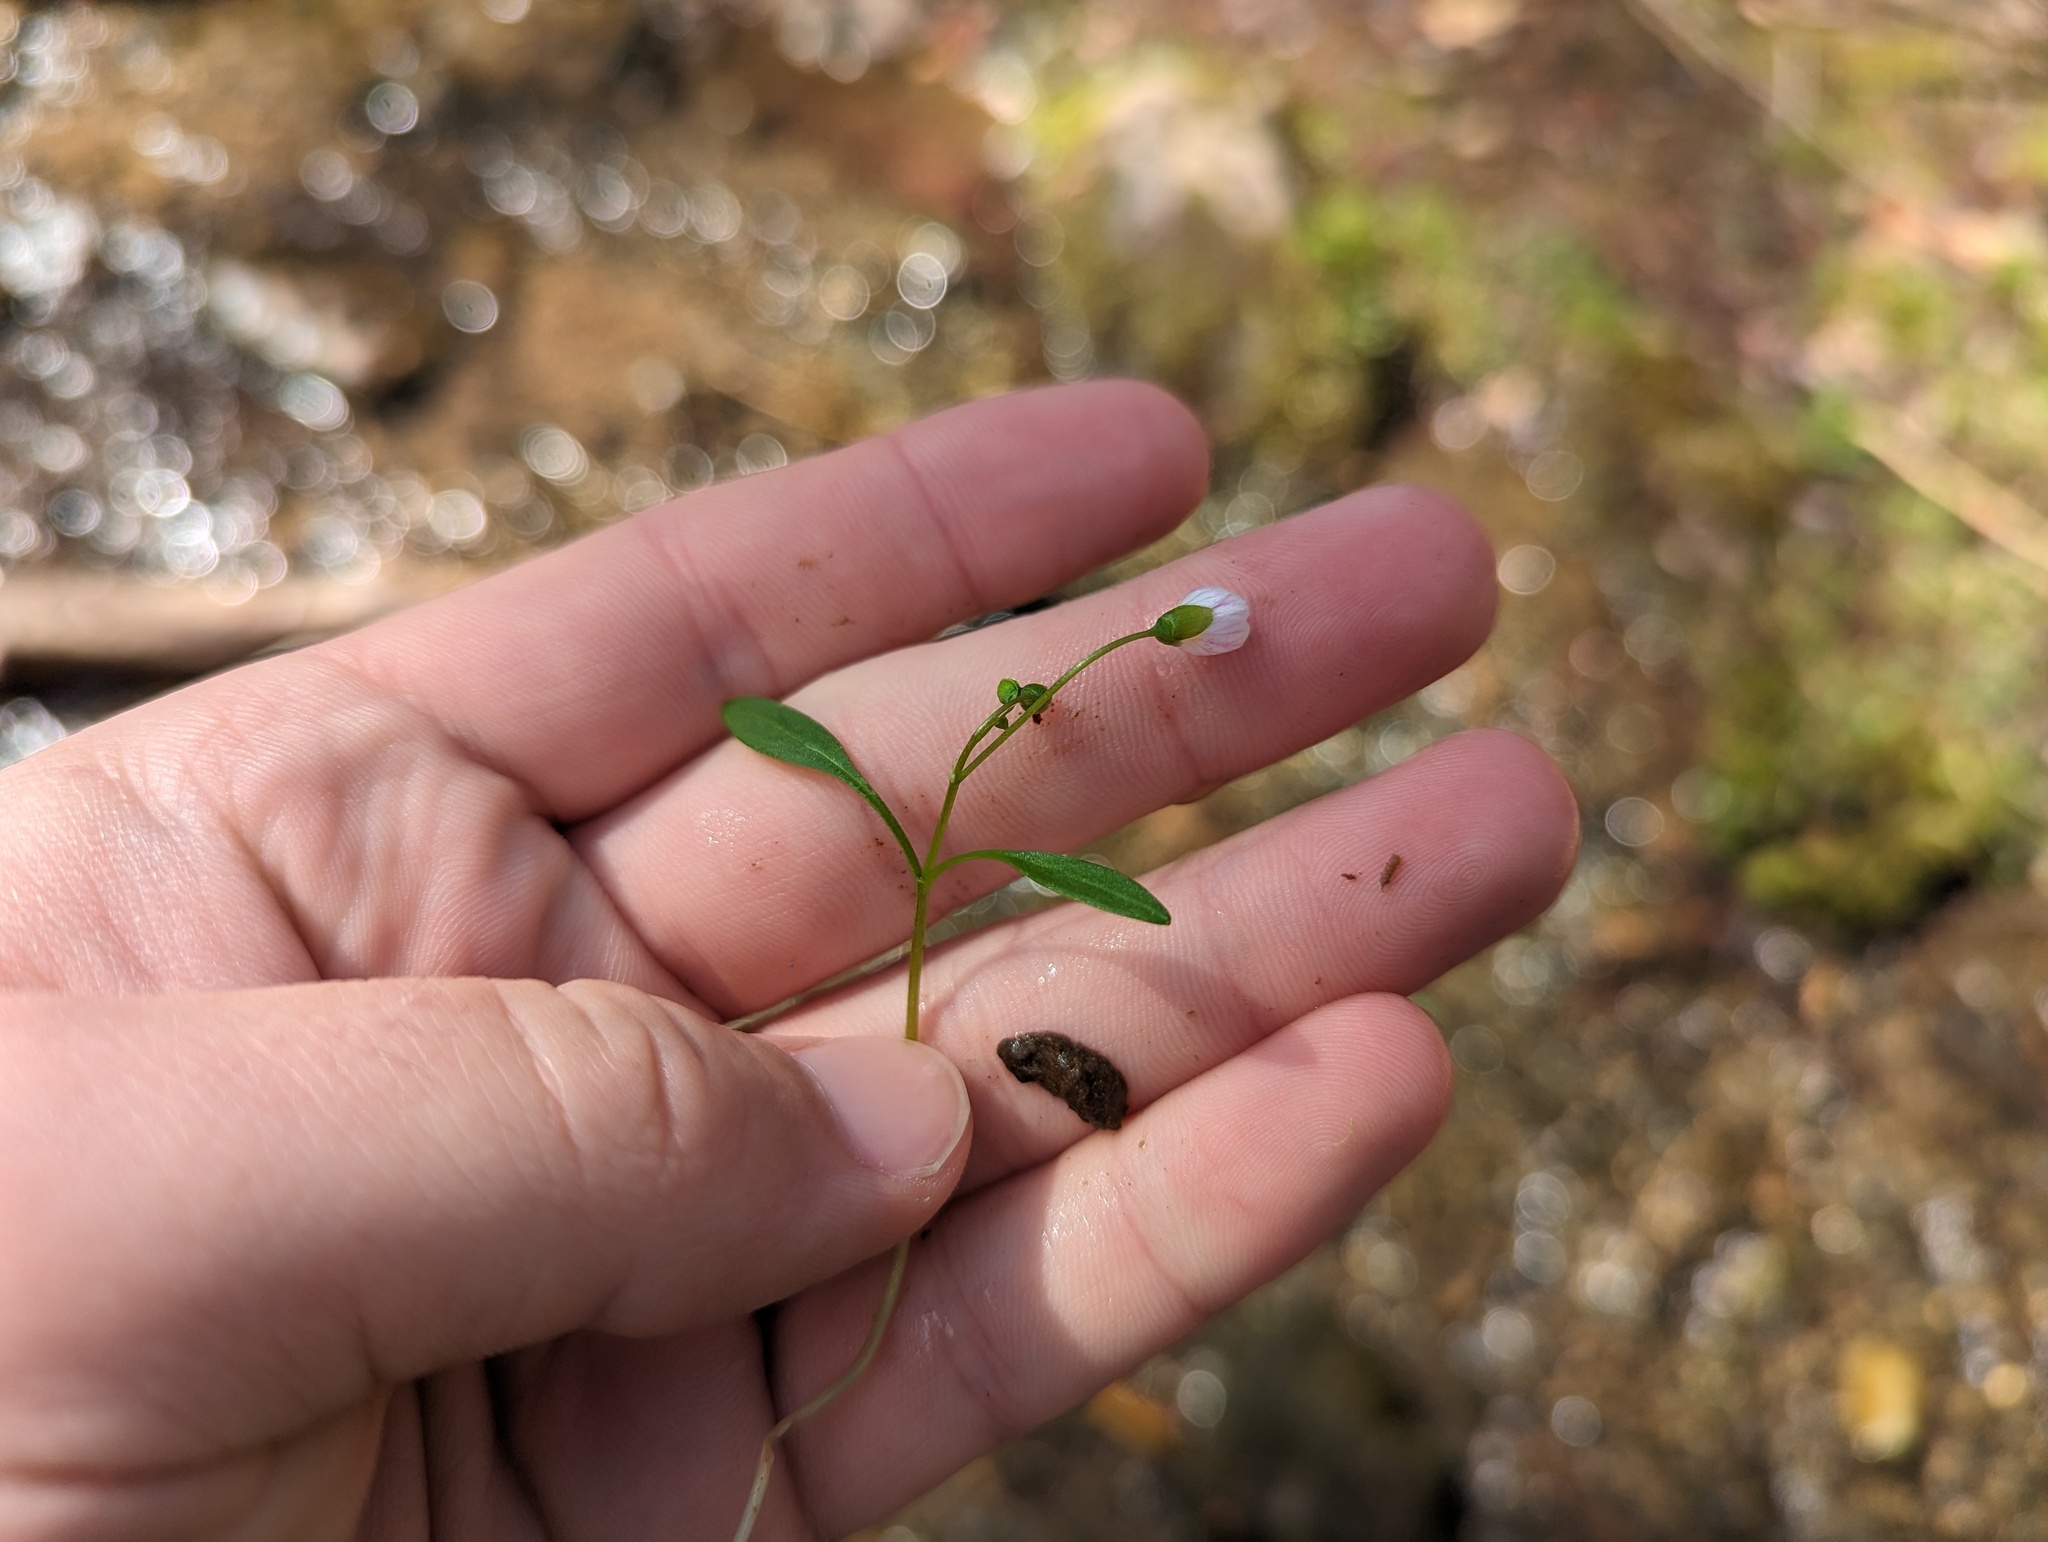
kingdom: Plantae
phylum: Tracheophyta
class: Magnoliopsida
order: Caryophyllales
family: Montiaceae
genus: Claytonia
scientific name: Claytonia caroliniana
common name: Carolina spring beauty
